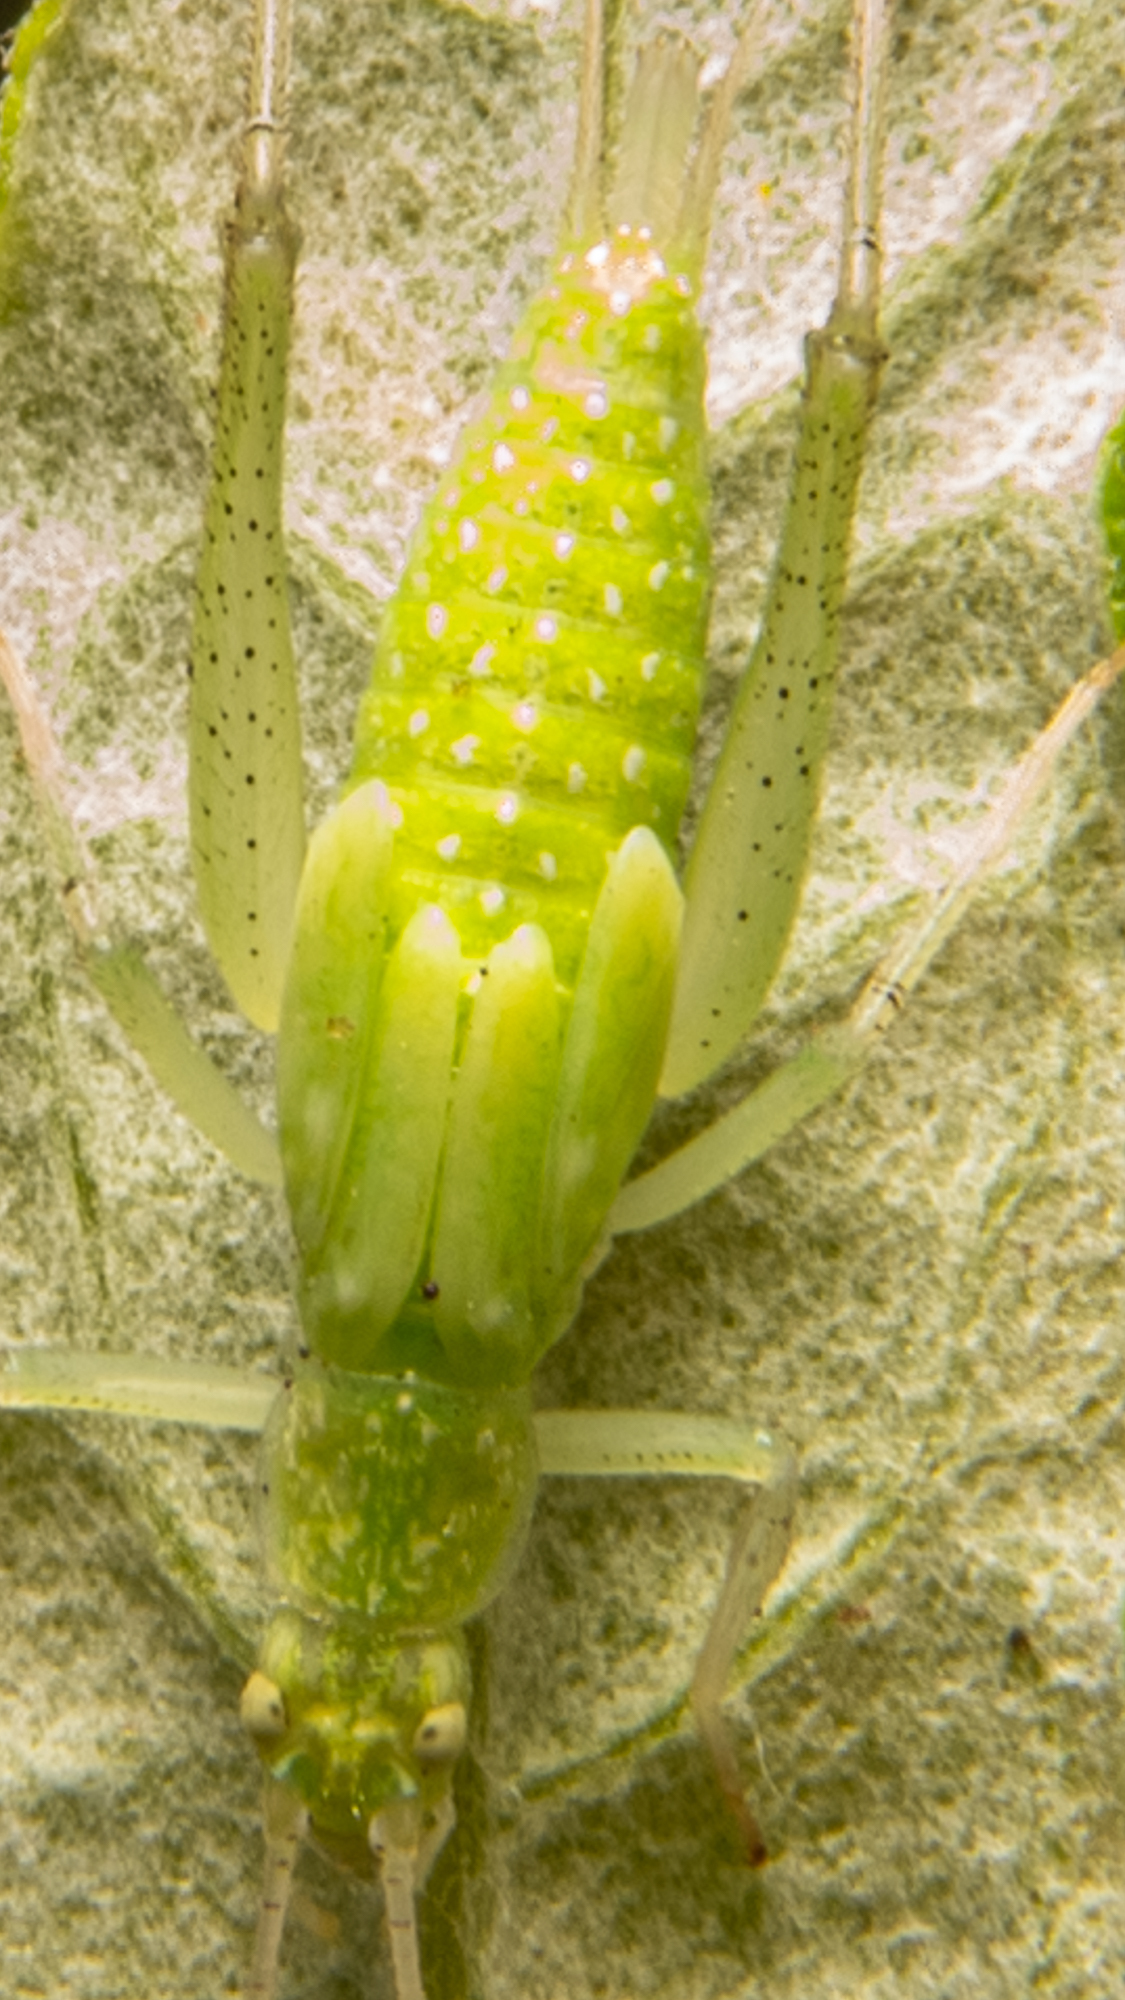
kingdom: Animalia
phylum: Arthropoda
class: Insecta
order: Orthoptera
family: Gryllidae
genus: Oecanthus
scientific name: Oecanthus rileyi
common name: Riley's tree cricket
